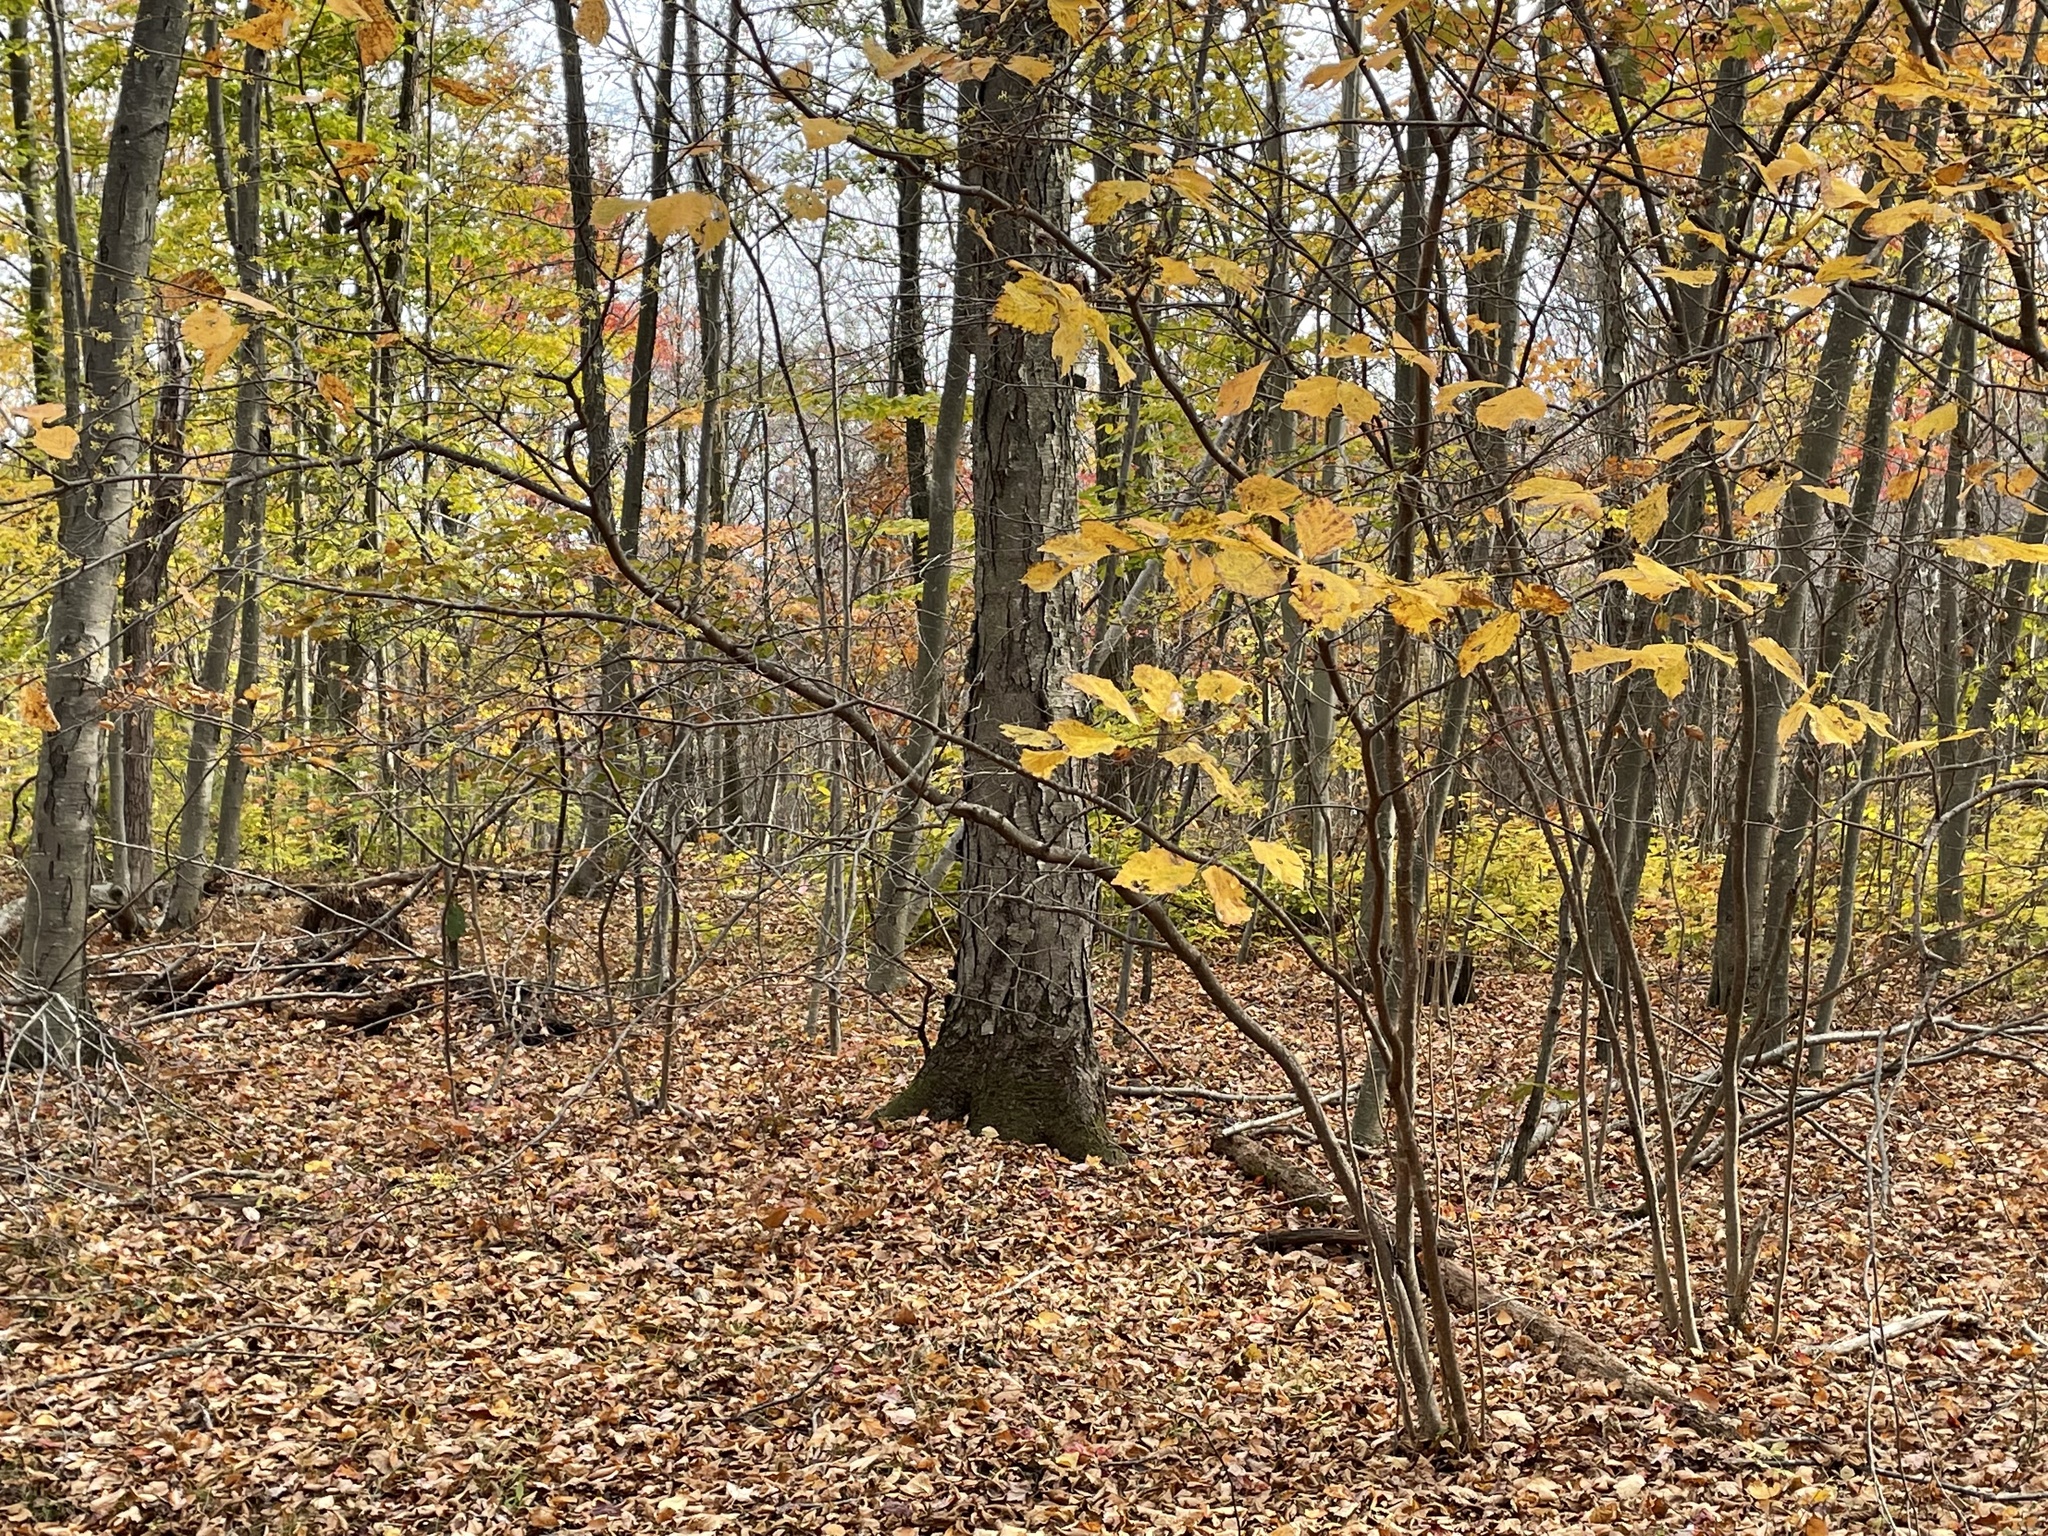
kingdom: Plantae
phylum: Tracheophyta
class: Magnoliopsida
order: Saxifragales
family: Hamamelidaceae
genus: Hamamelis
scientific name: Hamamelis virginiana
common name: Witch-hazel
